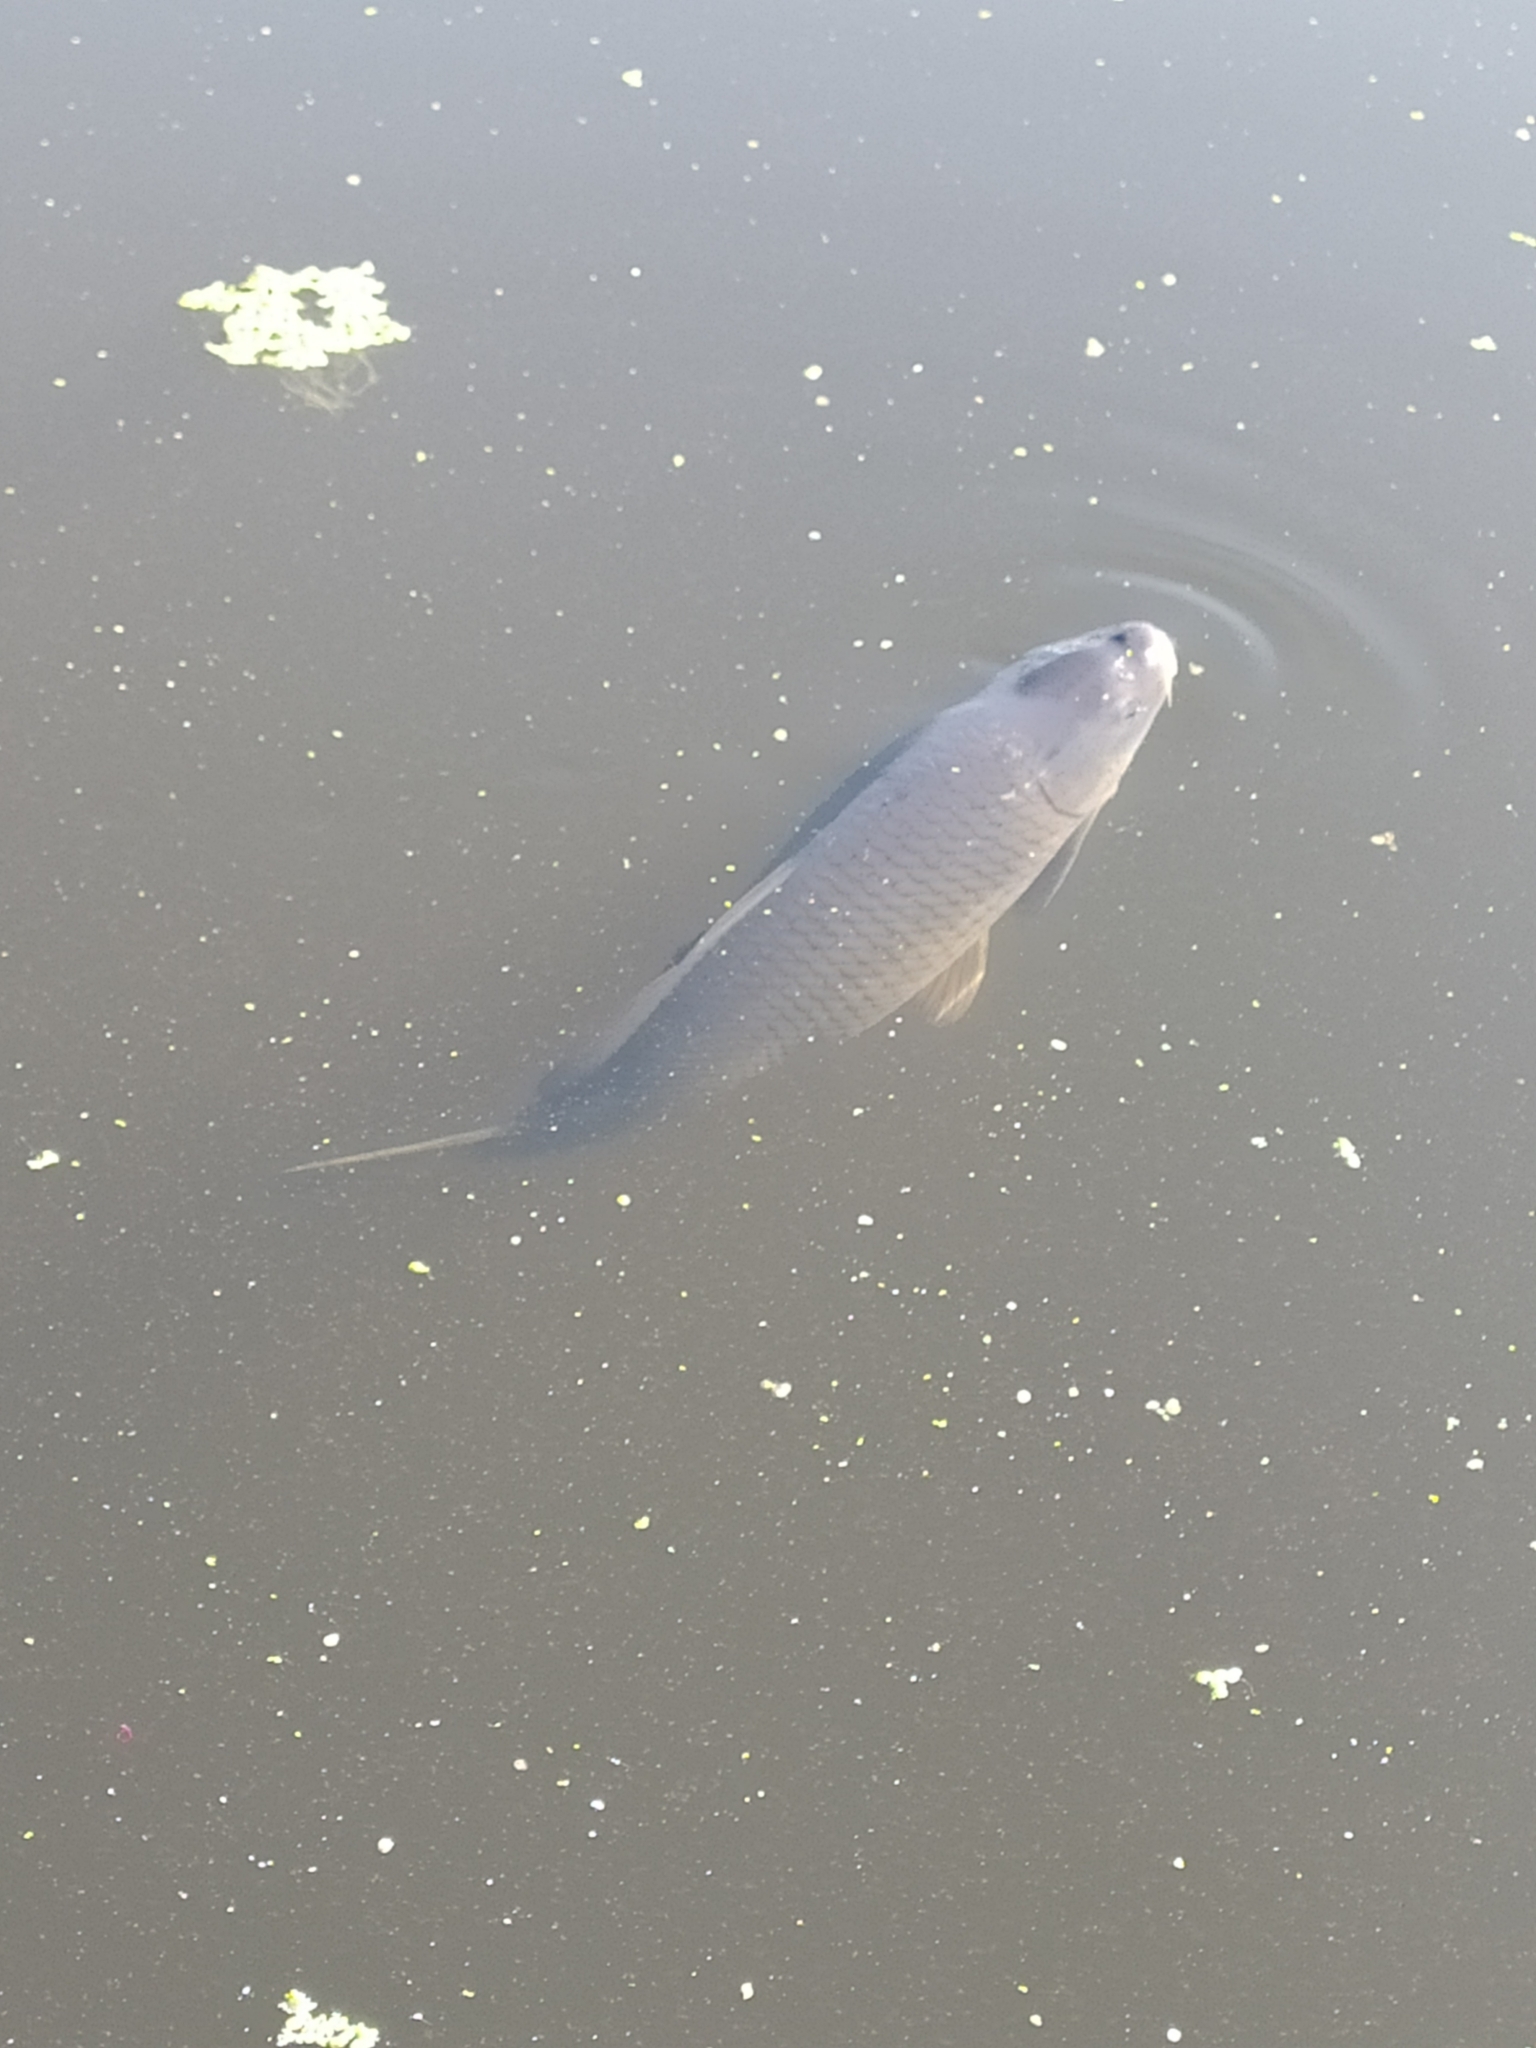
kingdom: Animalia
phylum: Chordata
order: Cypriniformes
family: Cyprinidae
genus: Cyprinus
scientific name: Cyprinus carpio
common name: Common carp
